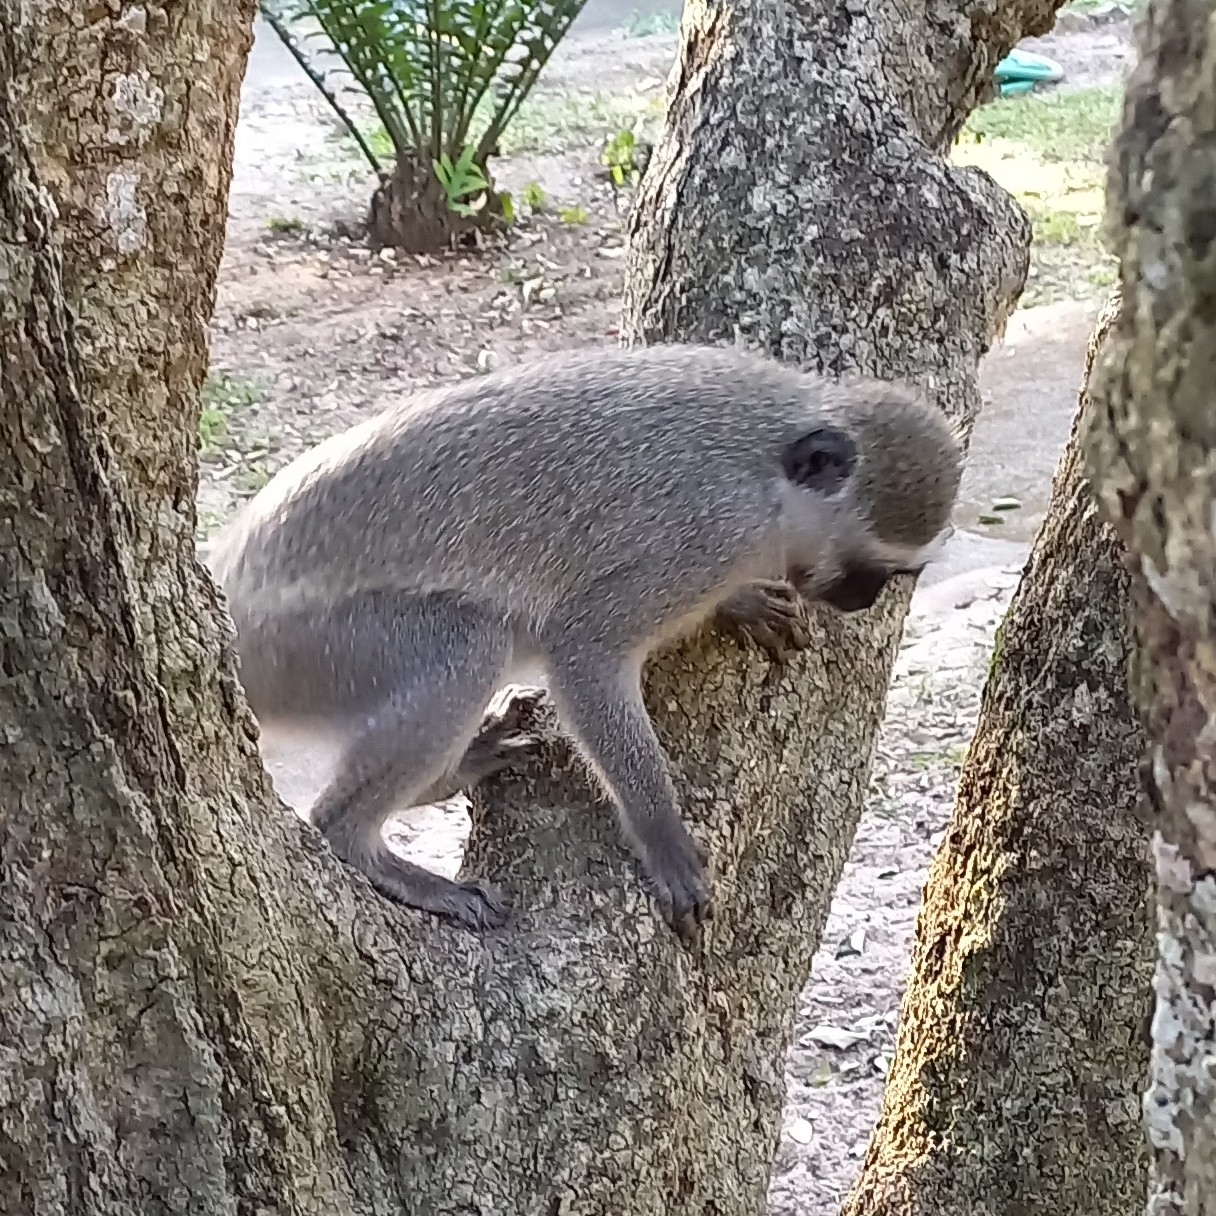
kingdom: Animalia
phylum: Chordata
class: Mammalia
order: Primates
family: Cercopithecidae
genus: Chlorocebus
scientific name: Chlorocebus pygerythrus
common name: Vervet monkey
